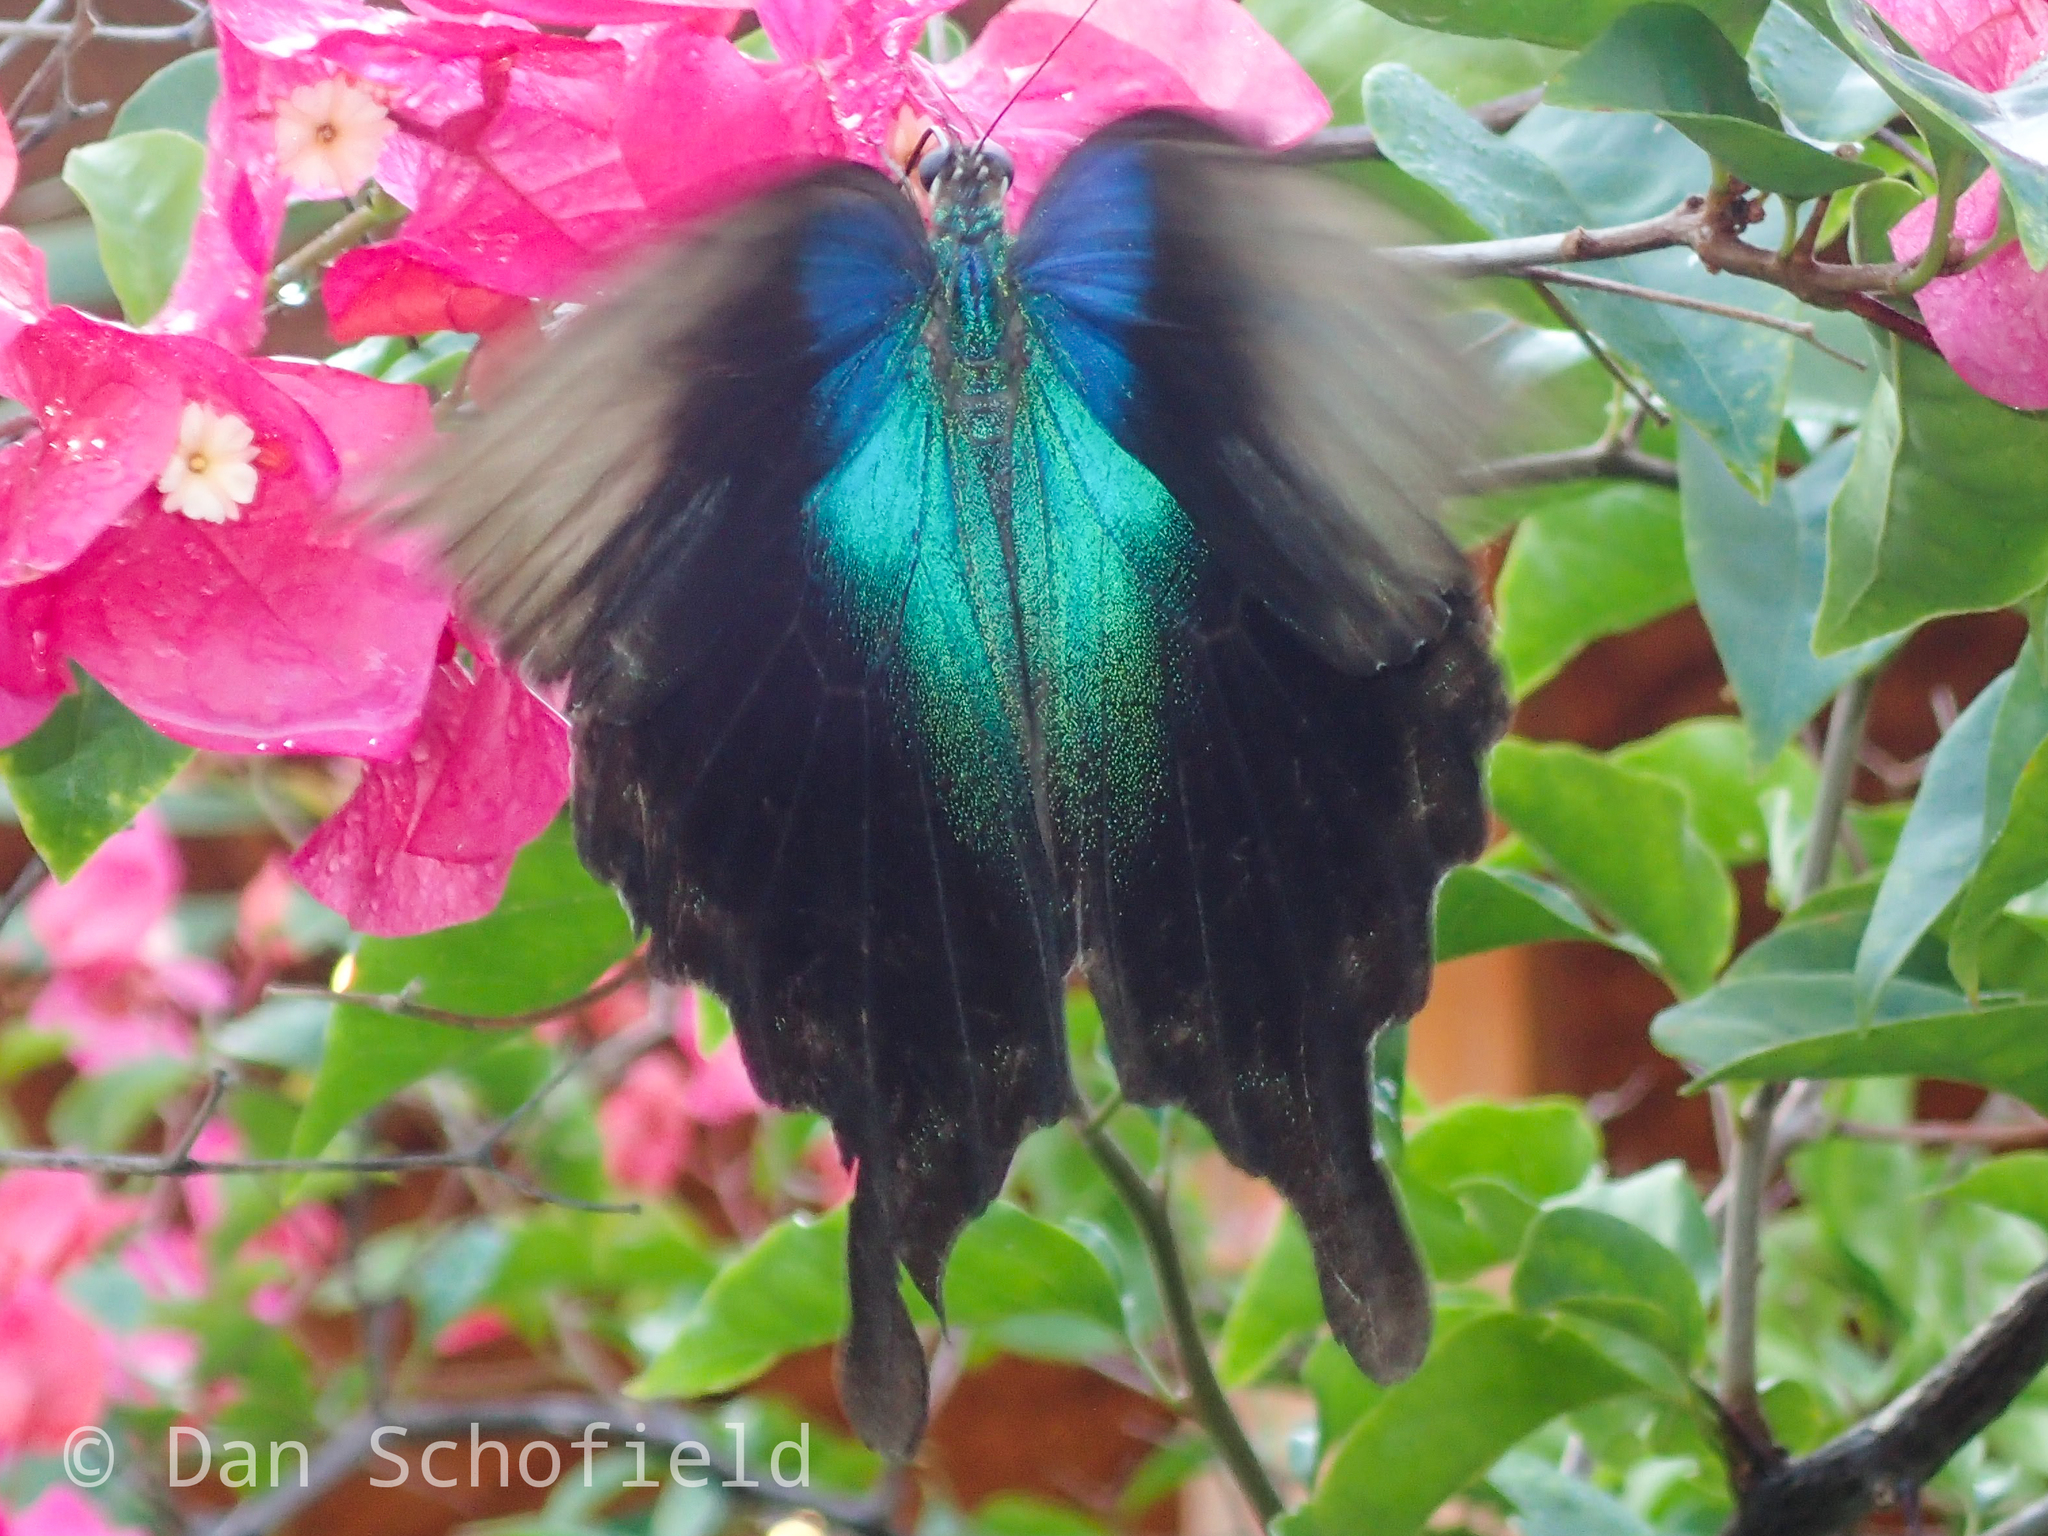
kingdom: Animalia
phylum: Arthropoda
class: Insecta
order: Lepidoptera
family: Papilionidae
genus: Papilio
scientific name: Papilio peranthus
